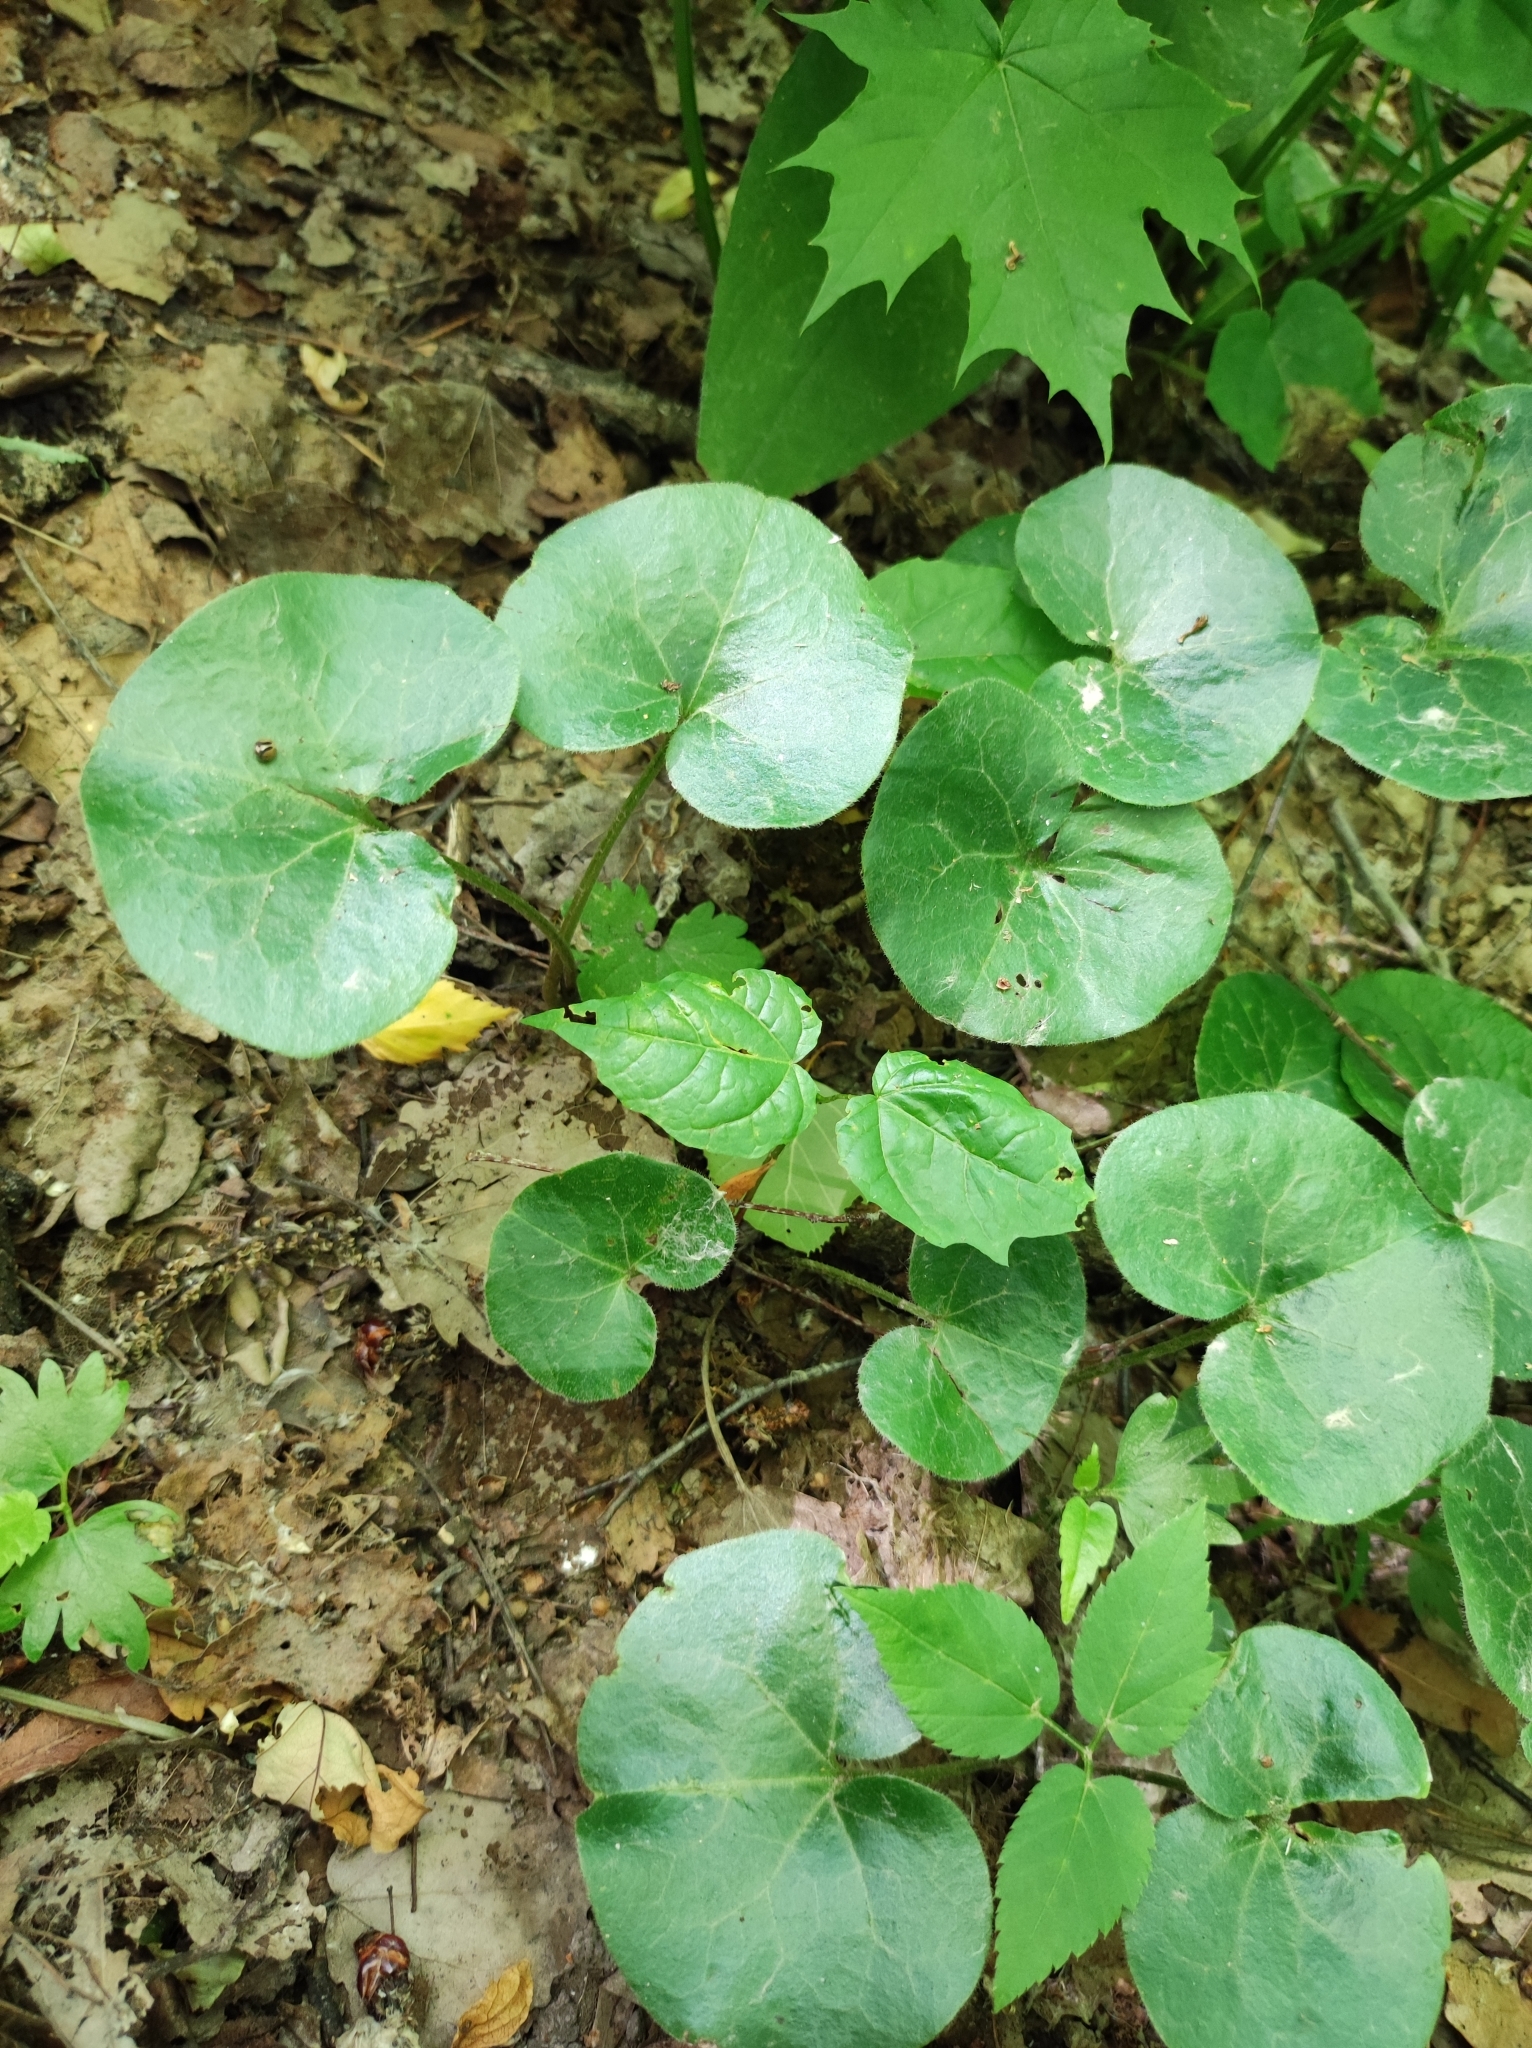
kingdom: Plantae
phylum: Tracheophyta
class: Magnoliopsida
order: Piperales
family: Aristolochiaceae
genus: Asarum
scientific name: Asarum europaeum
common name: Asarabacca
